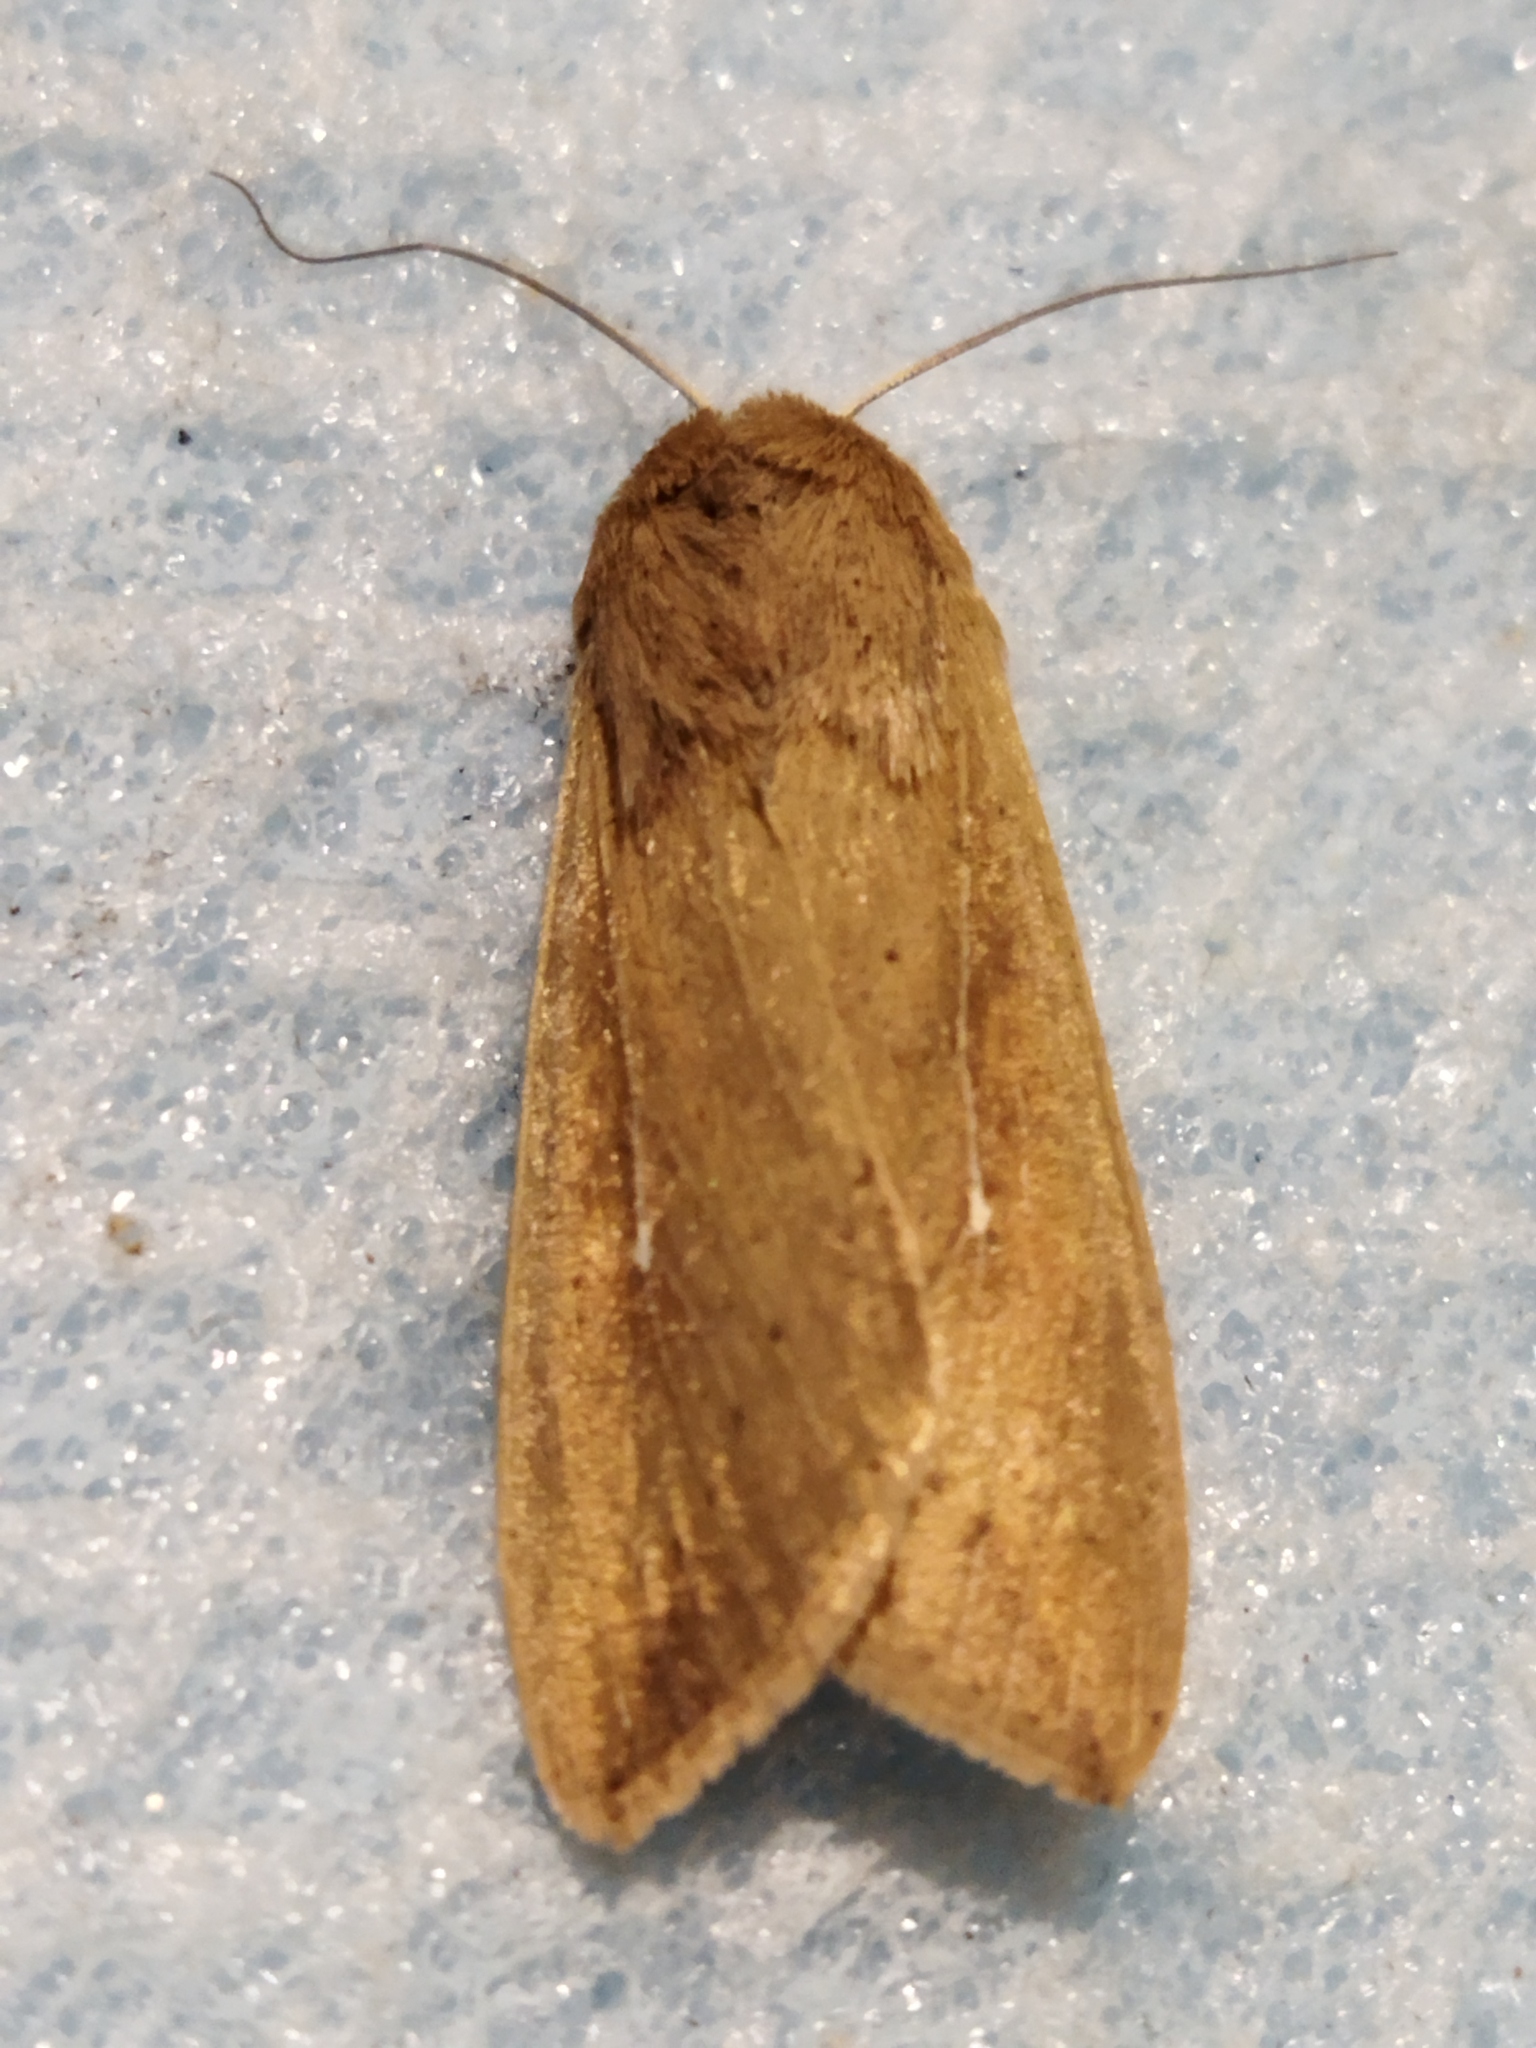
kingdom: Animalia
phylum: Arthropoda
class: Insecta
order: Lepidoptera
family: Noctuidae
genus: Mythimna
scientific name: Mythimna unipuncta
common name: White-speck
